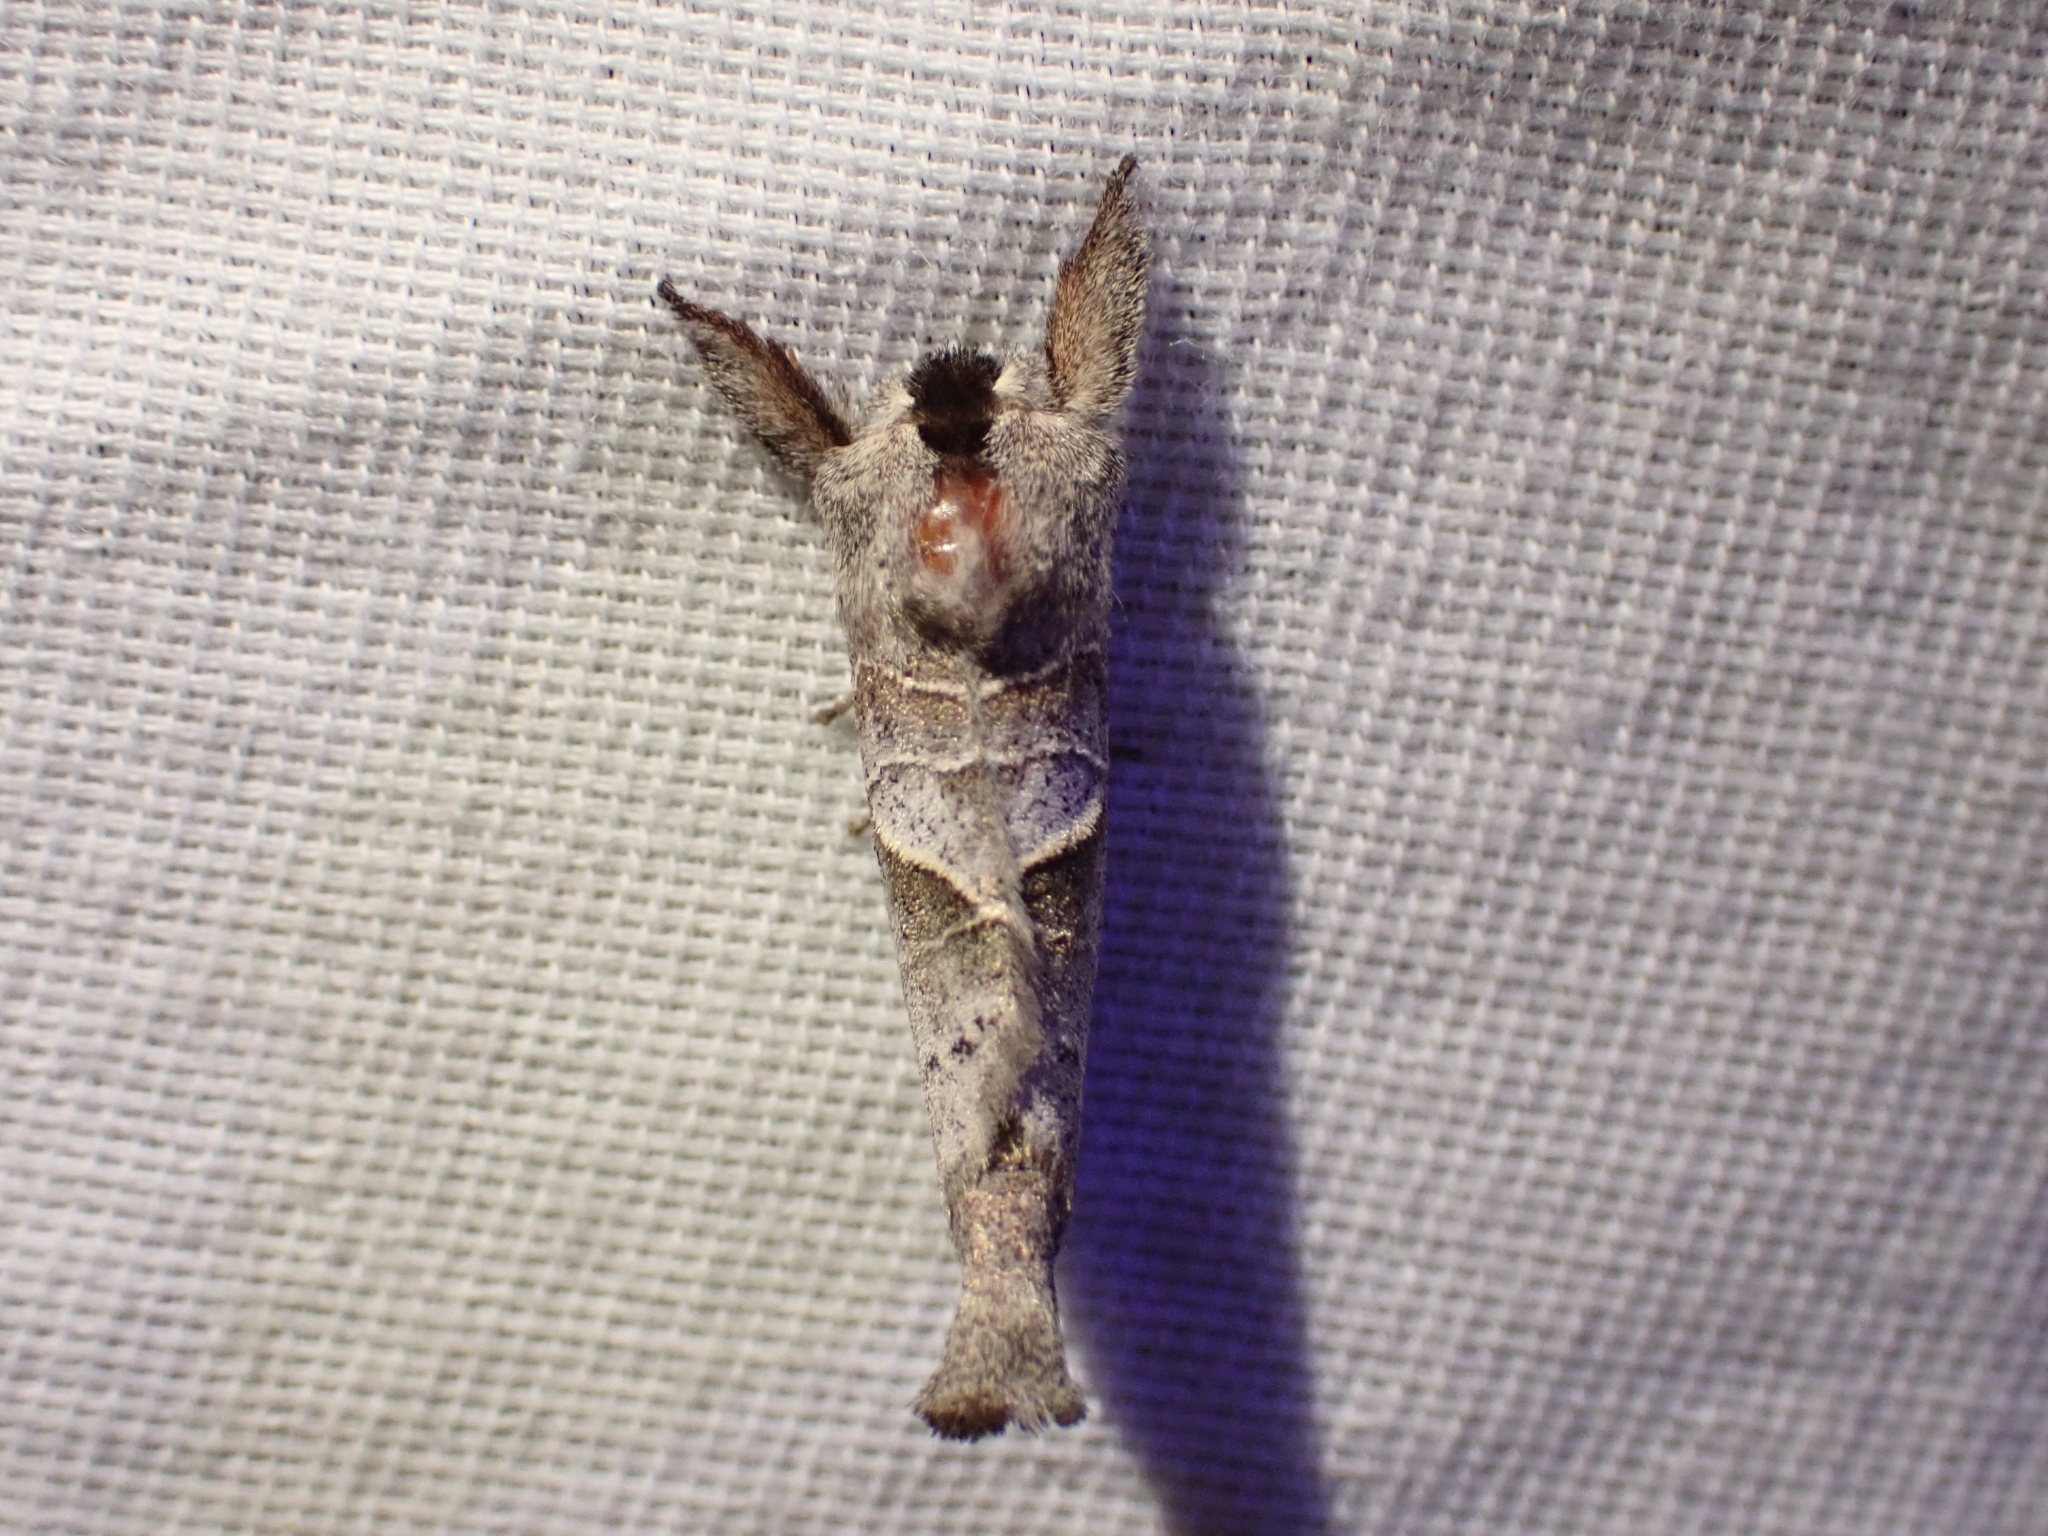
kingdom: Animalia
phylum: Arthropoda
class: Insecta
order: Lepidoptera
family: Notodontidae
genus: Clostera
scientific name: Clostera apicalis
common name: Apical prominent
